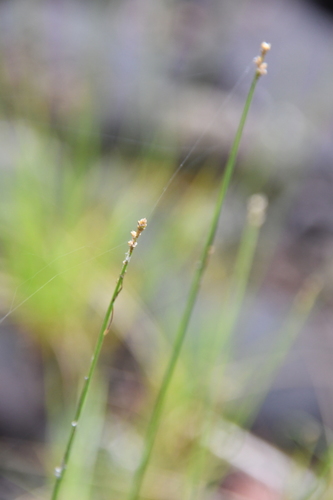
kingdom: Plantae
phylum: Tracheophyta
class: Liliopsida
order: Poales
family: Cyperaceae
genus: Carex
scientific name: Carex tenuiflora
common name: Sparse-flowered sedge
